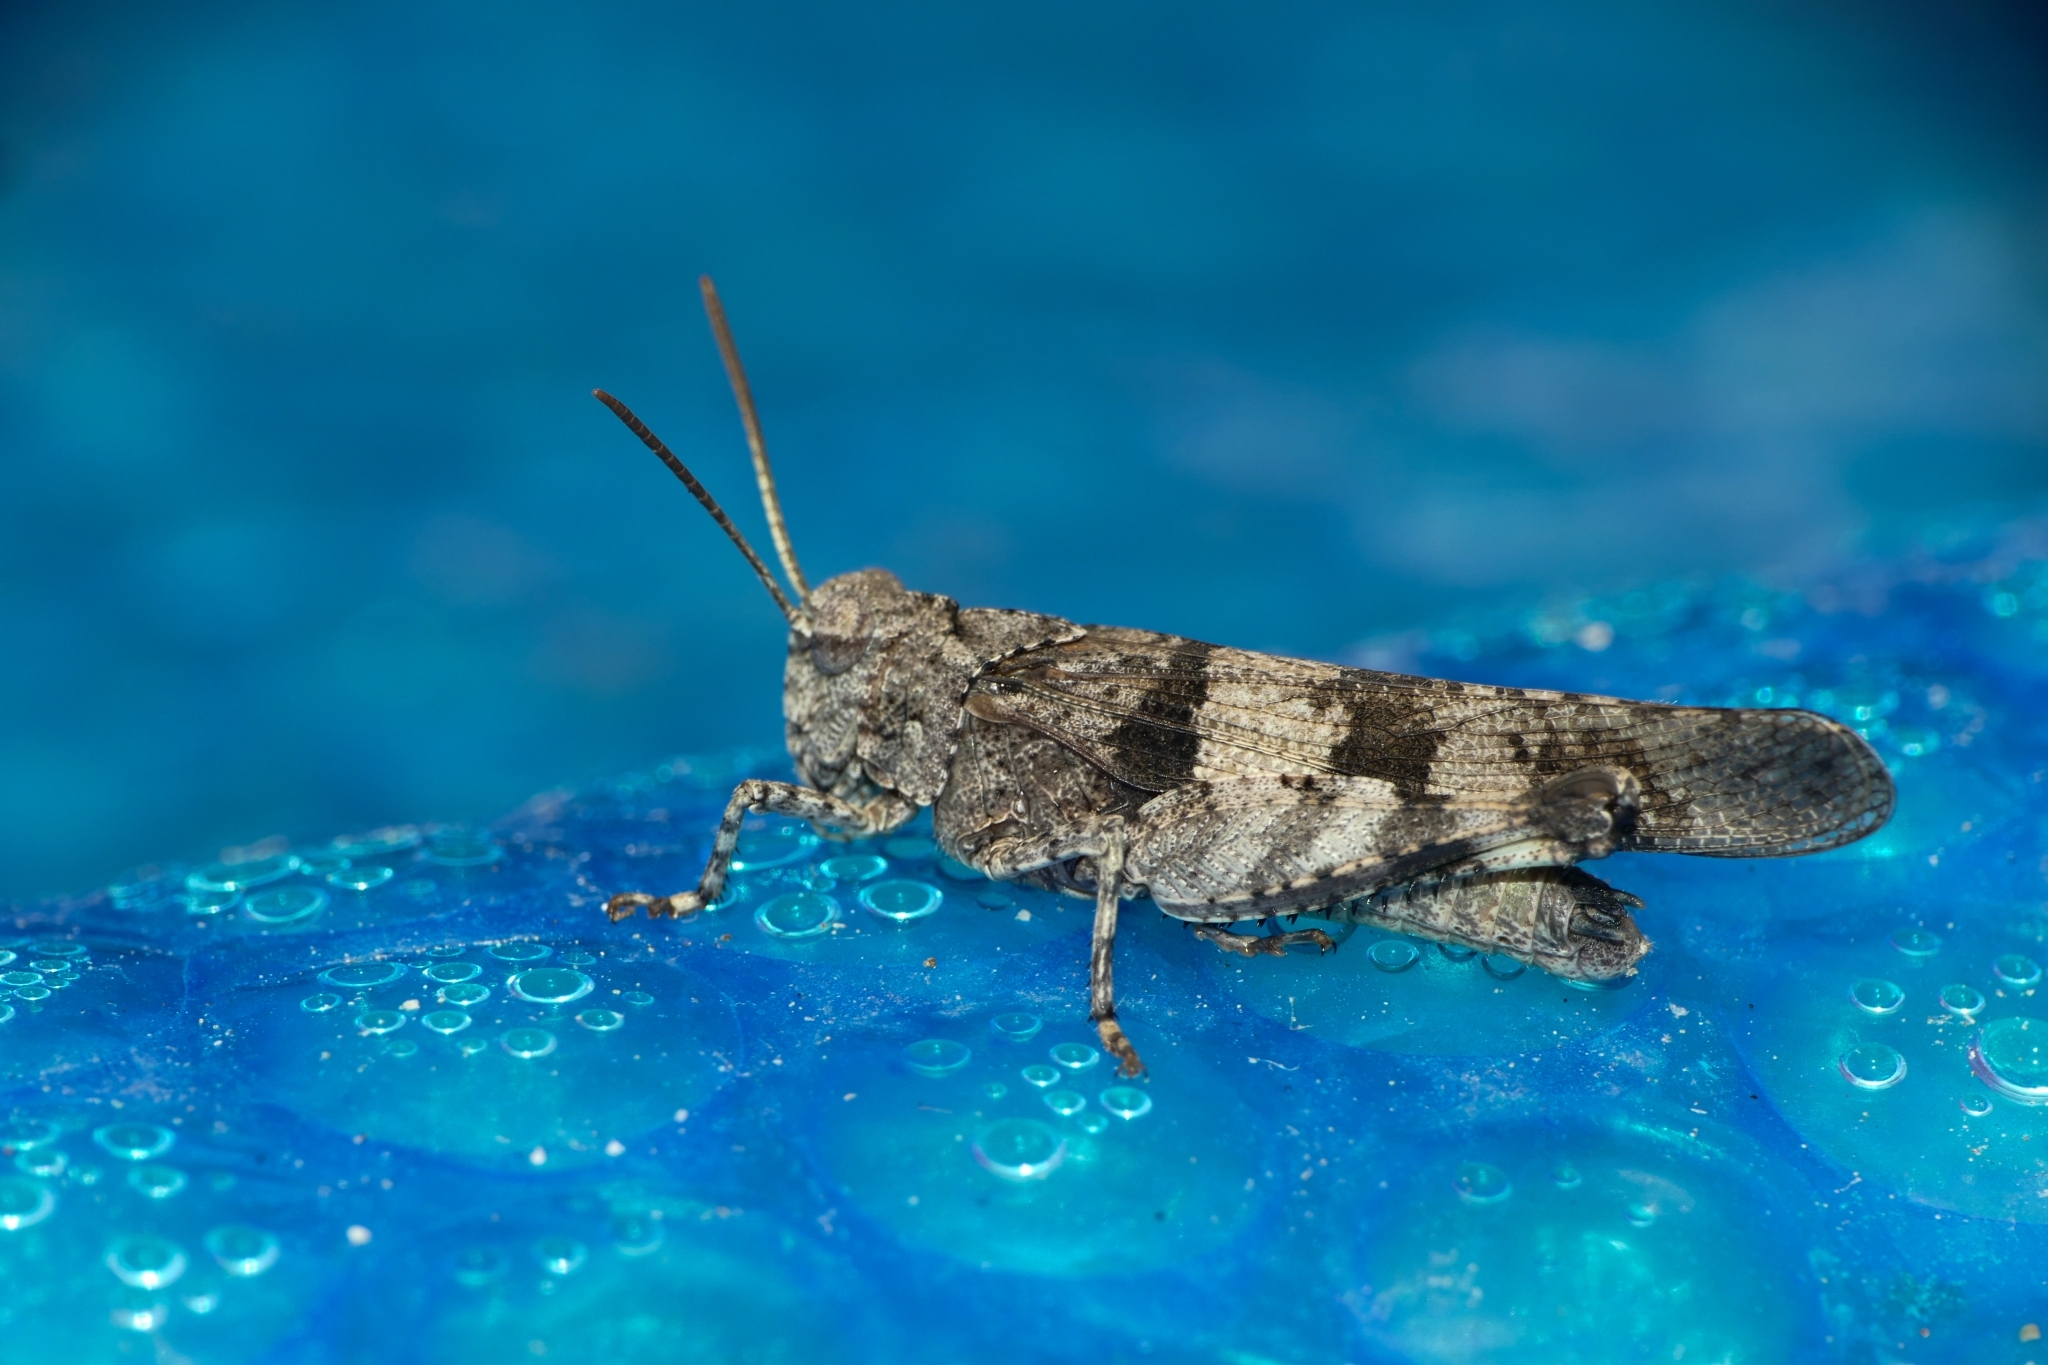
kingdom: Animalia
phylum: Arthropoda
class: Insecta
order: Orthoptera
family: Acrididae
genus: Oedipoda
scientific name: Oedipoda caerulescens
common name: Blue-winged grasshopper
